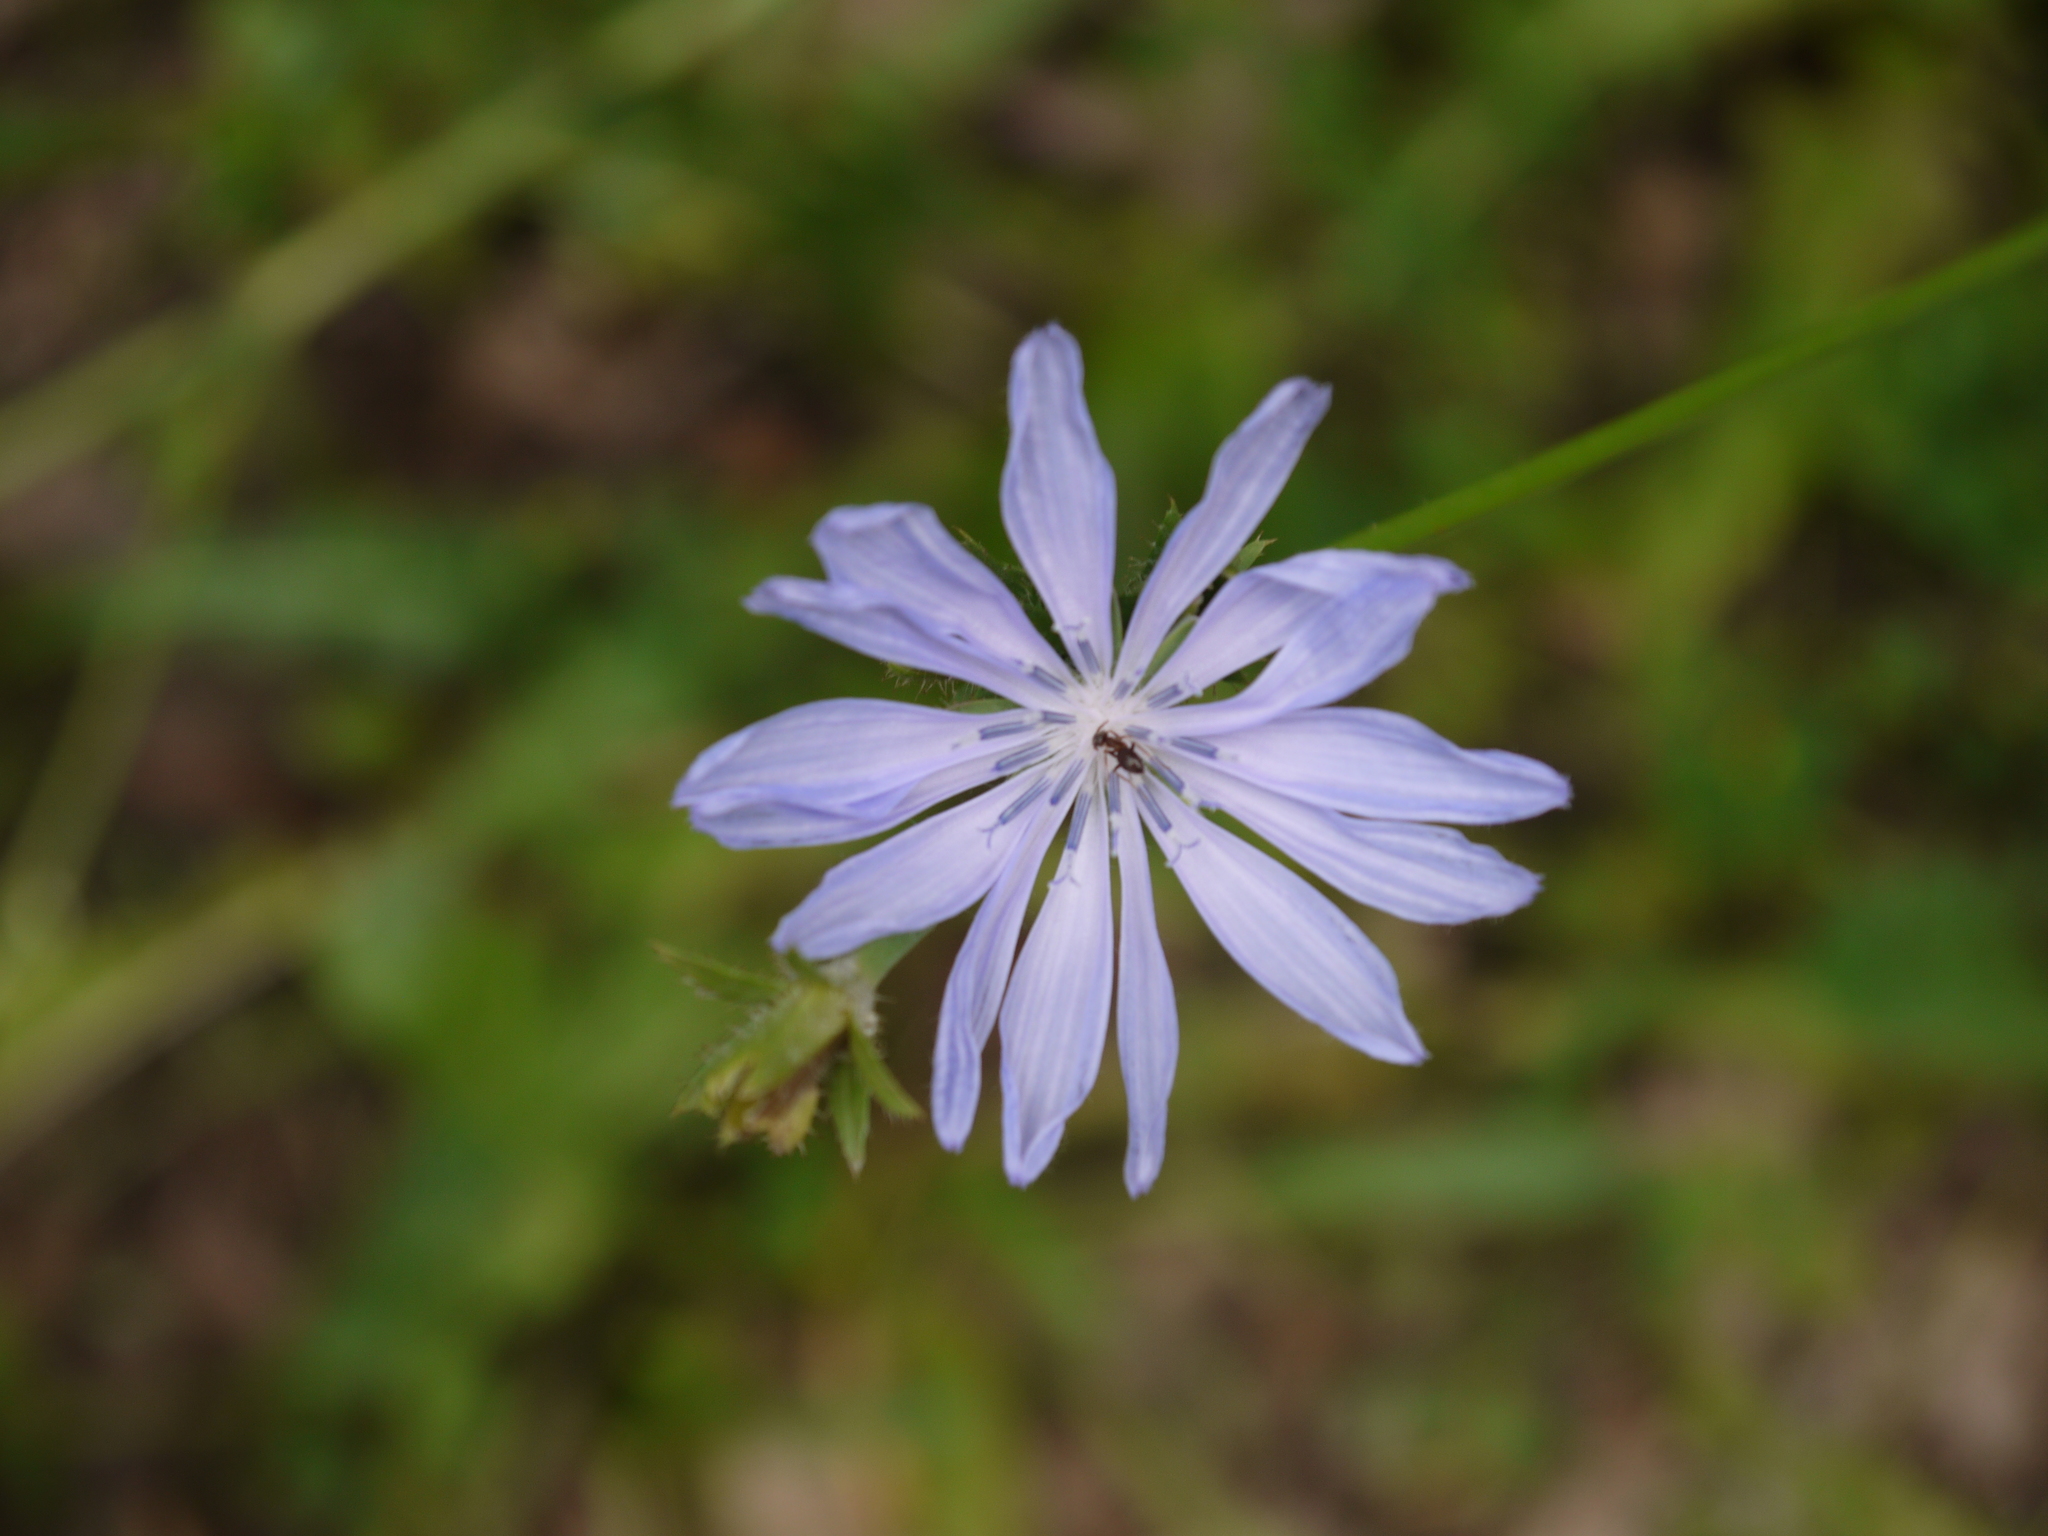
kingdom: Plantae
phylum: Tracheophyta
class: Magnoliopsida
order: Asterales
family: Asteraceae
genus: Cichorium
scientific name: Cichorium intybus
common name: Chicory
